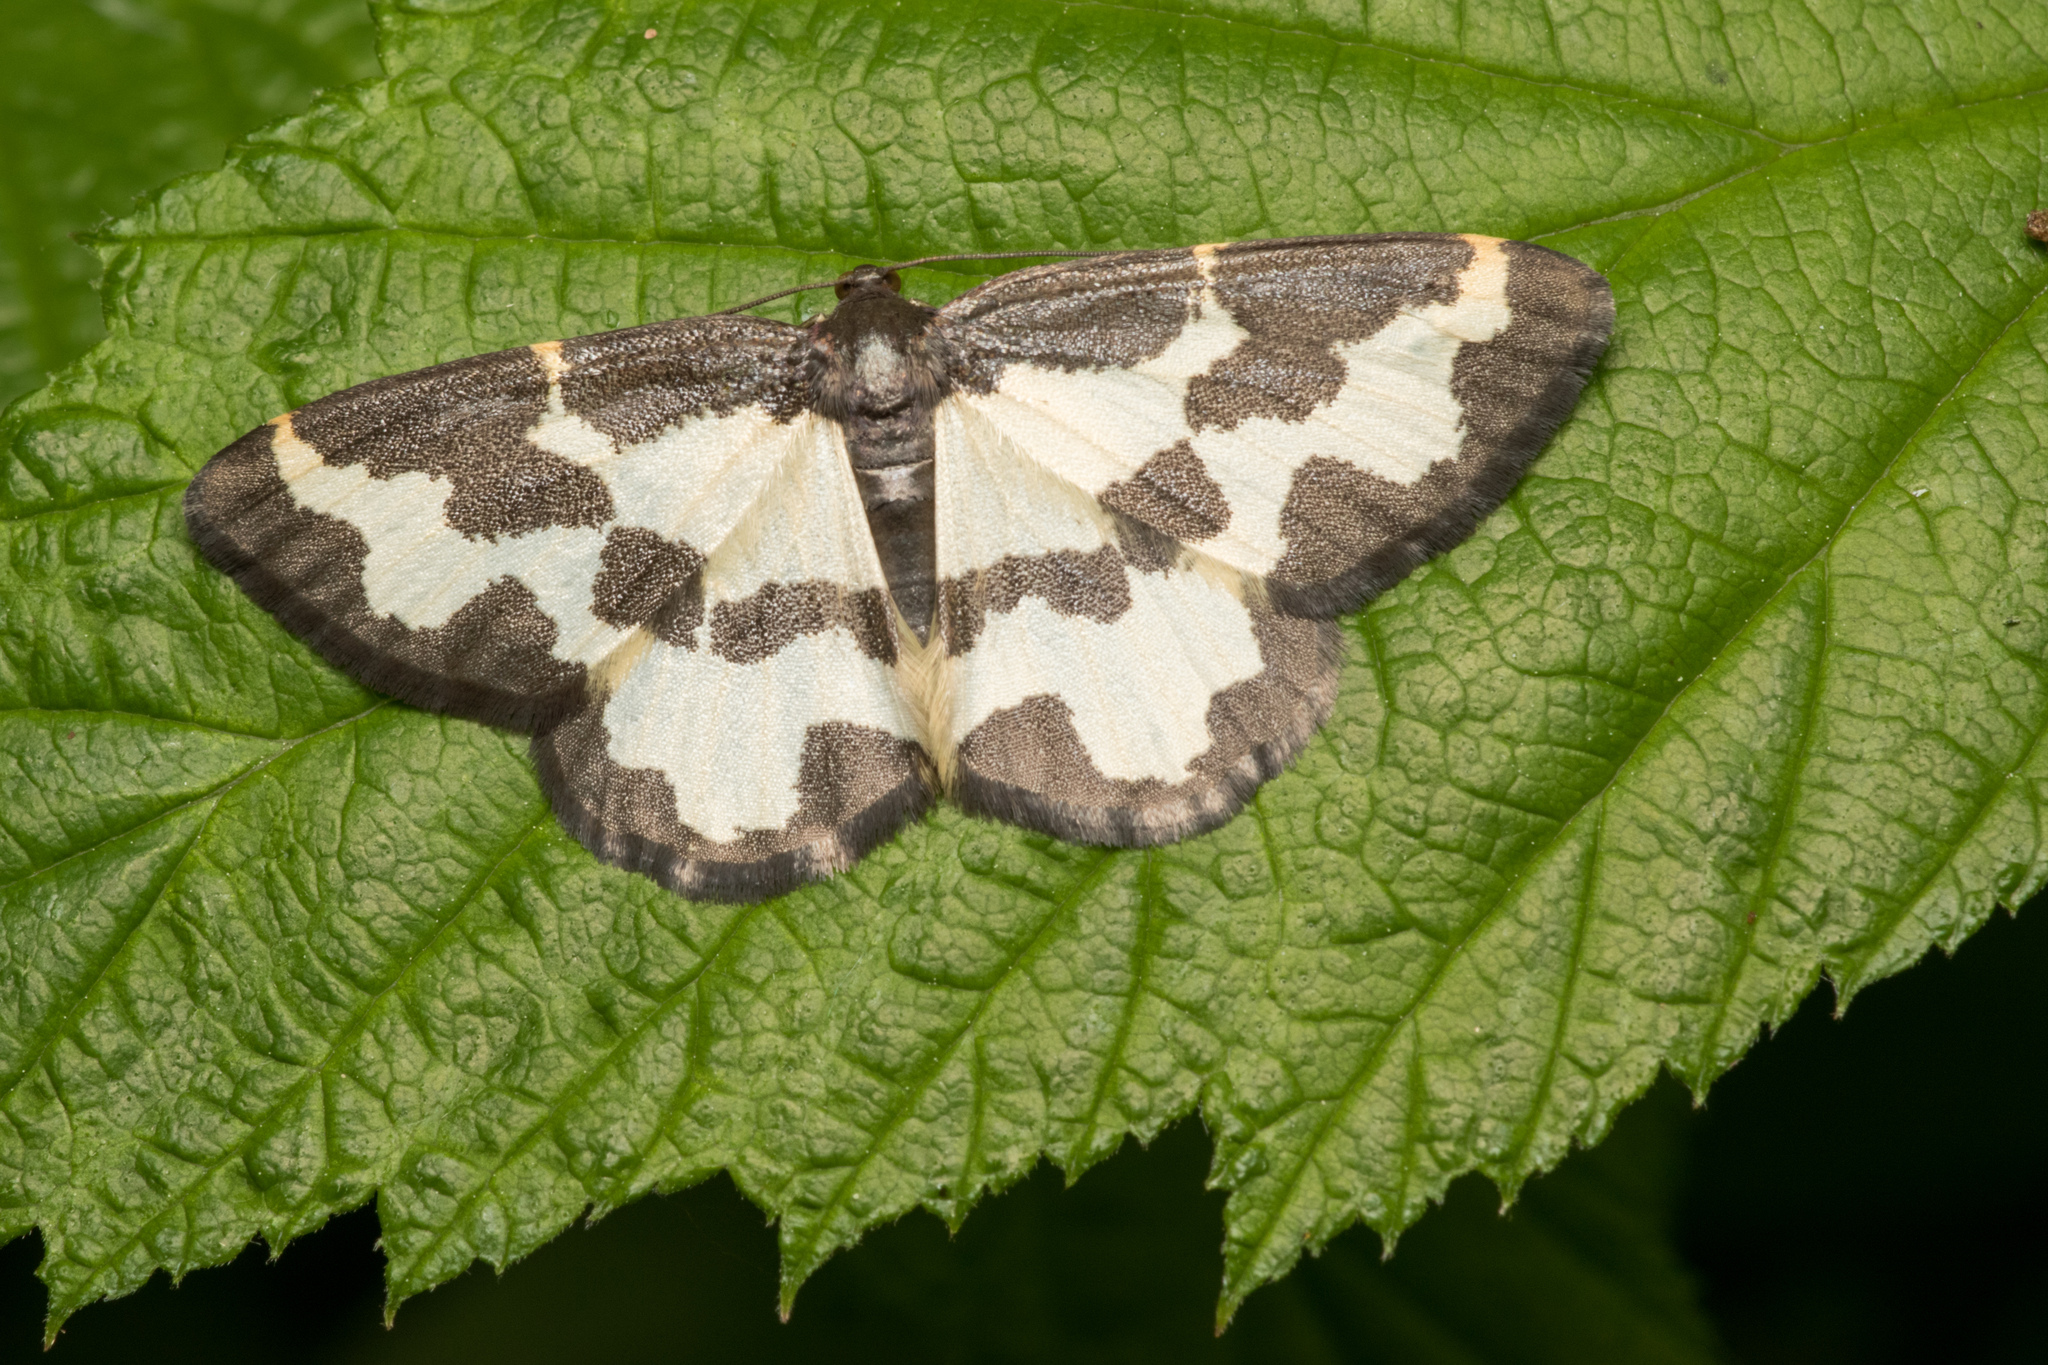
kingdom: Animalia
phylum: Arthropoda
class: Insecta
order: Lepidoptera
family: Geometridae
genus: Lomaspilis
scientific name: Lomaspilis marginata
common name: Clouded border
